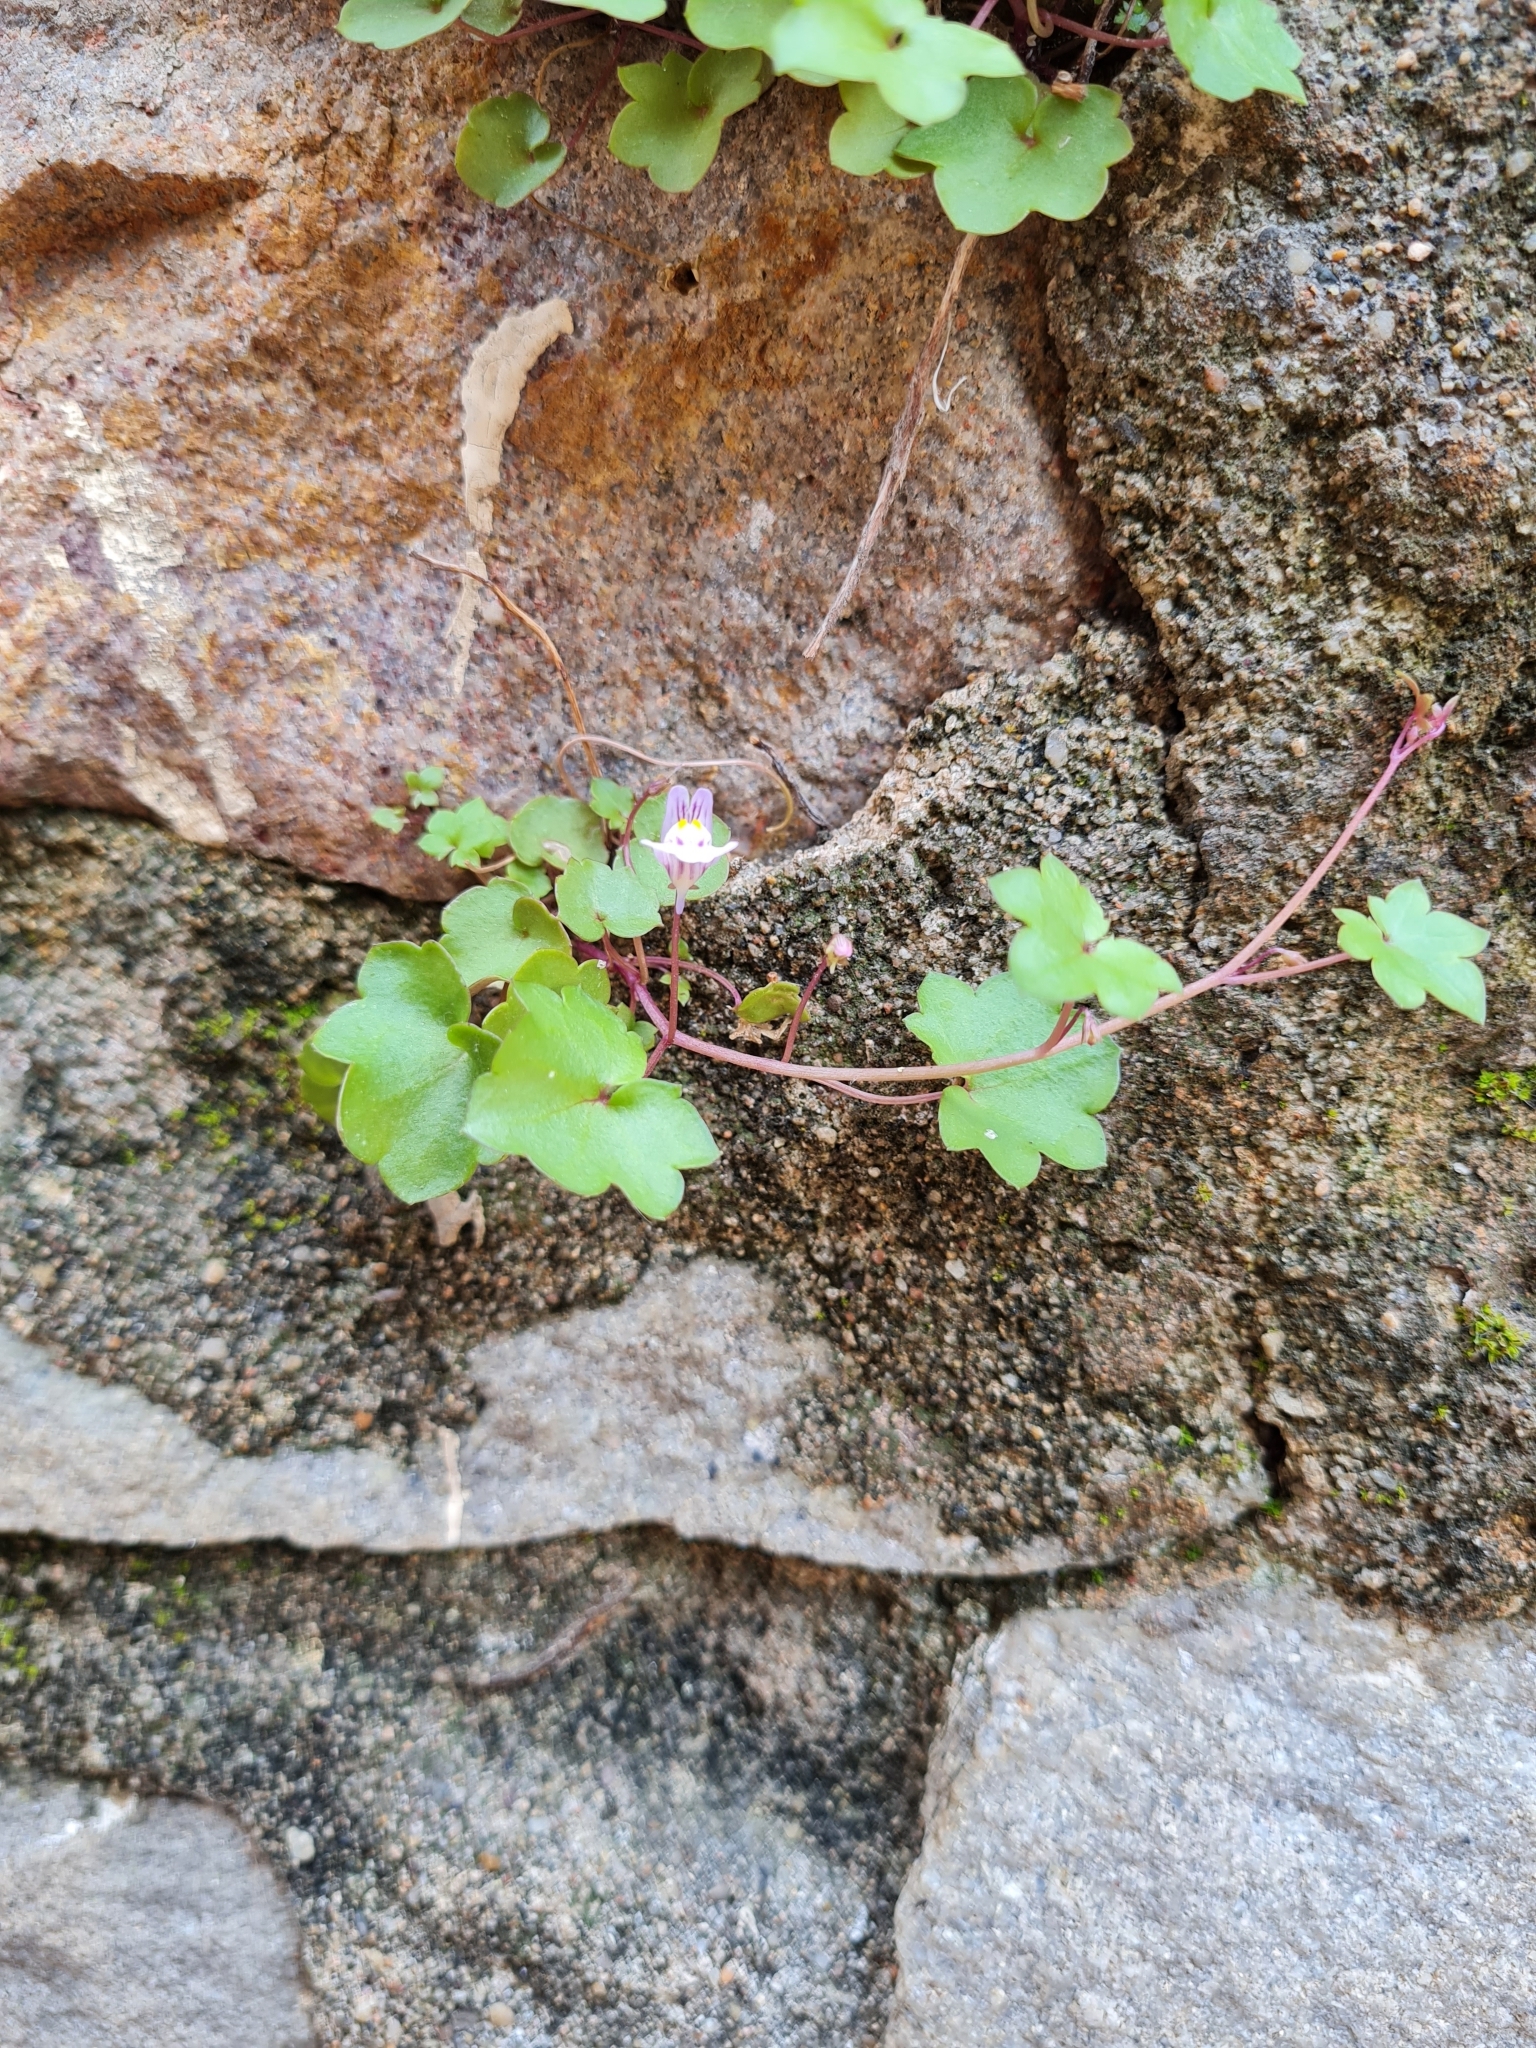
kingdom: Plantae
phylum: Tracheophyta
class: Magnoliopsida
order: Lamiales
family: Plantaginaceae
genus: Cymbalaria
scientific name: Cymbalaria muralis
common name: Ivy-leaved toadflax
